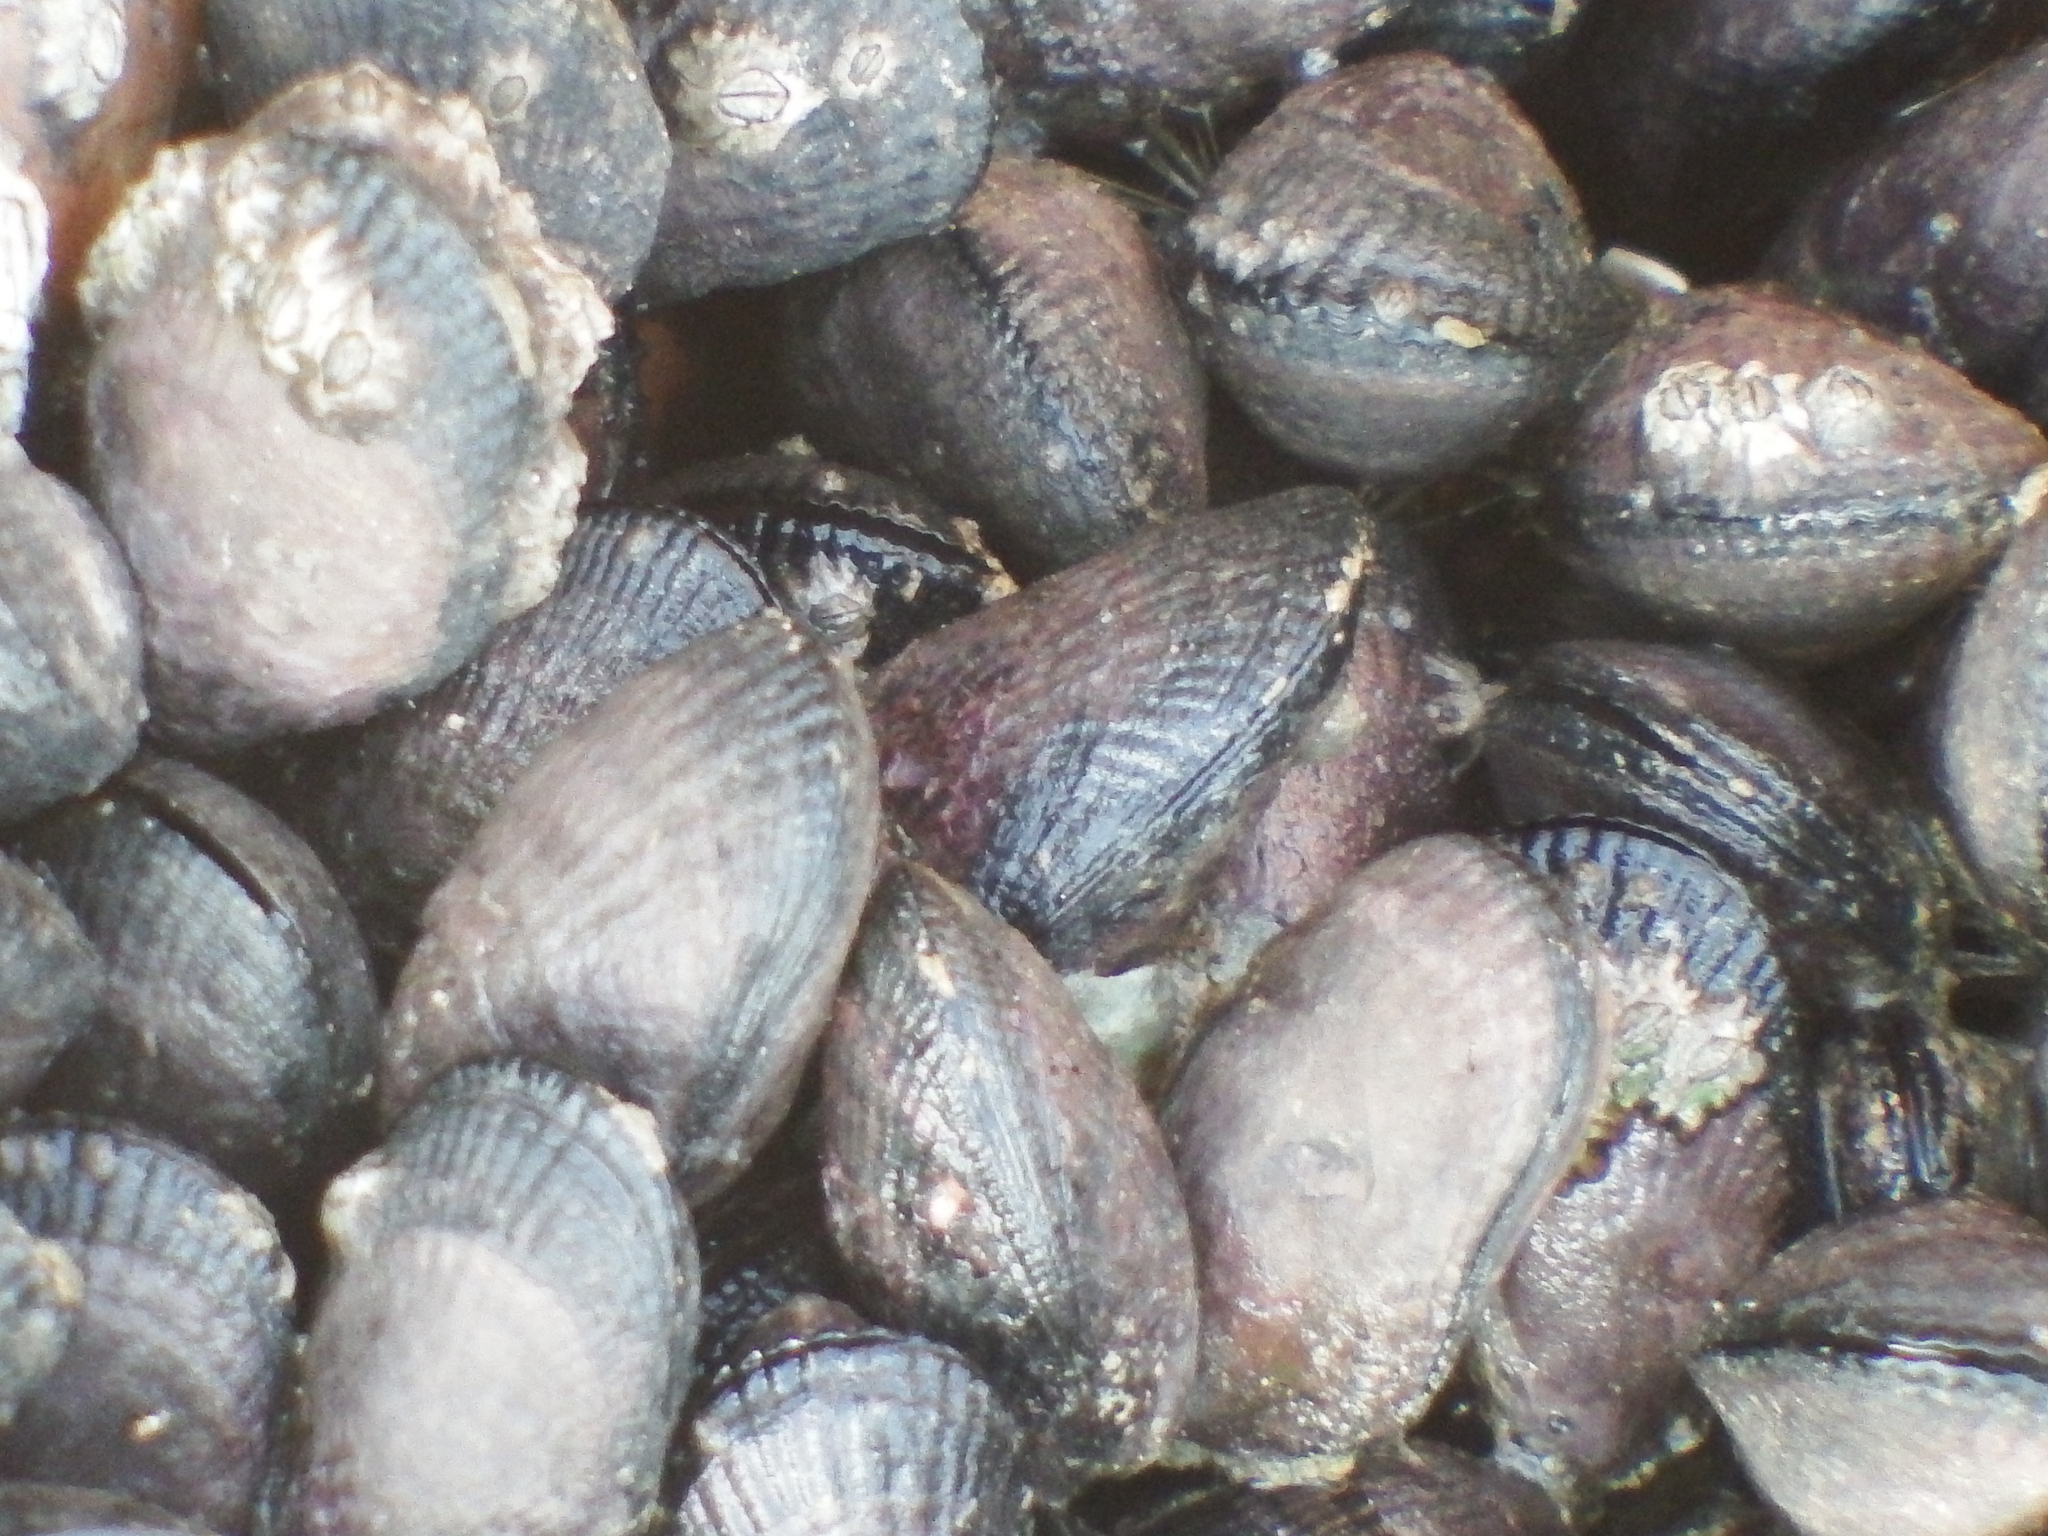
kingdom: Animalia
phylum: Mollusca
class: Bivalvia
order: Mytilida
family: Mytilidae
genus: Perumytilus
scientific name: Perumytilus purpuratus
